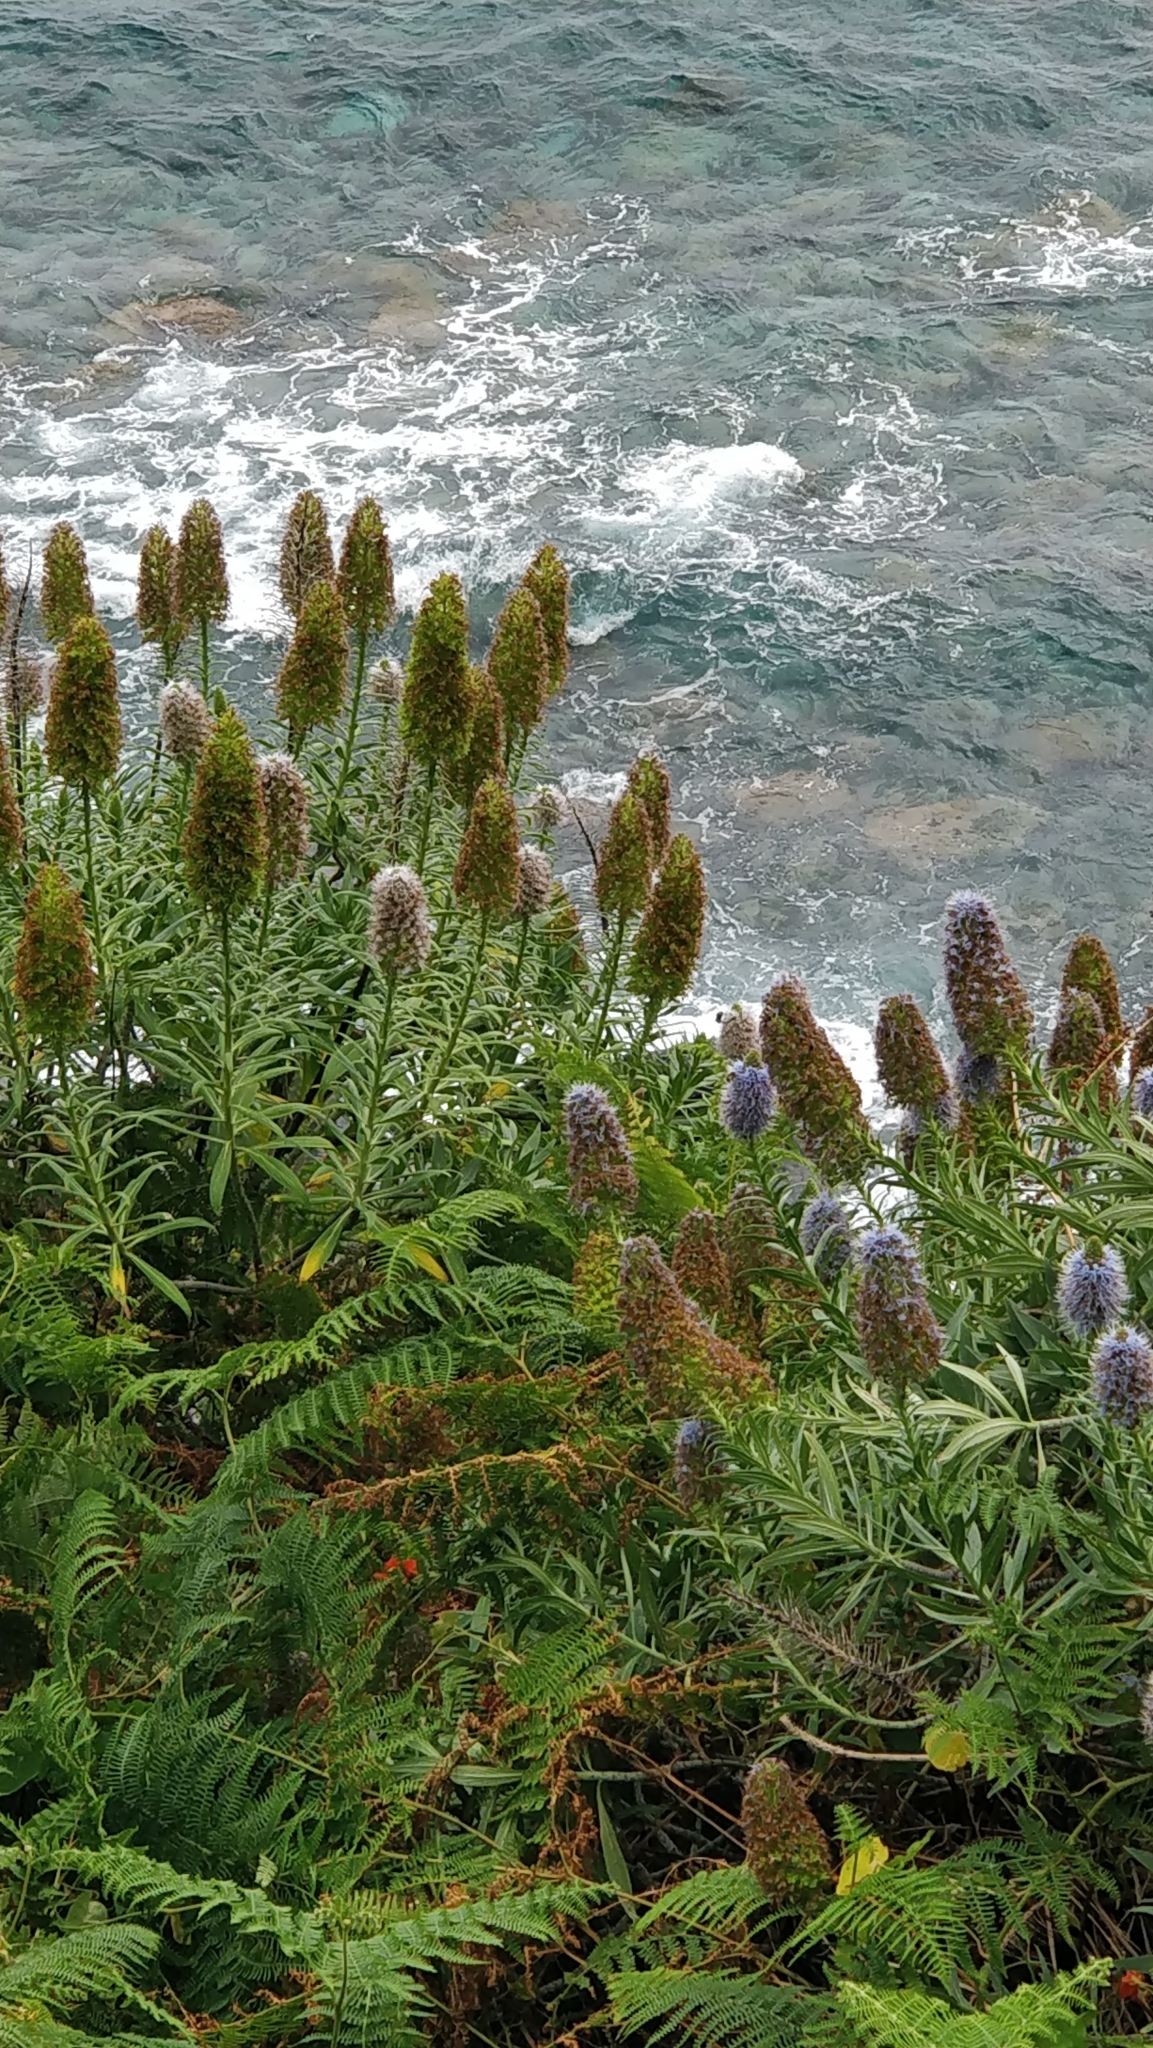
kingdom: Plantae
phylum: Tracheophyta
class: Magnoliopsida
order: Boraginales
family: Boraginaceae
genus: Echium
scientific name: Echium nervosum
